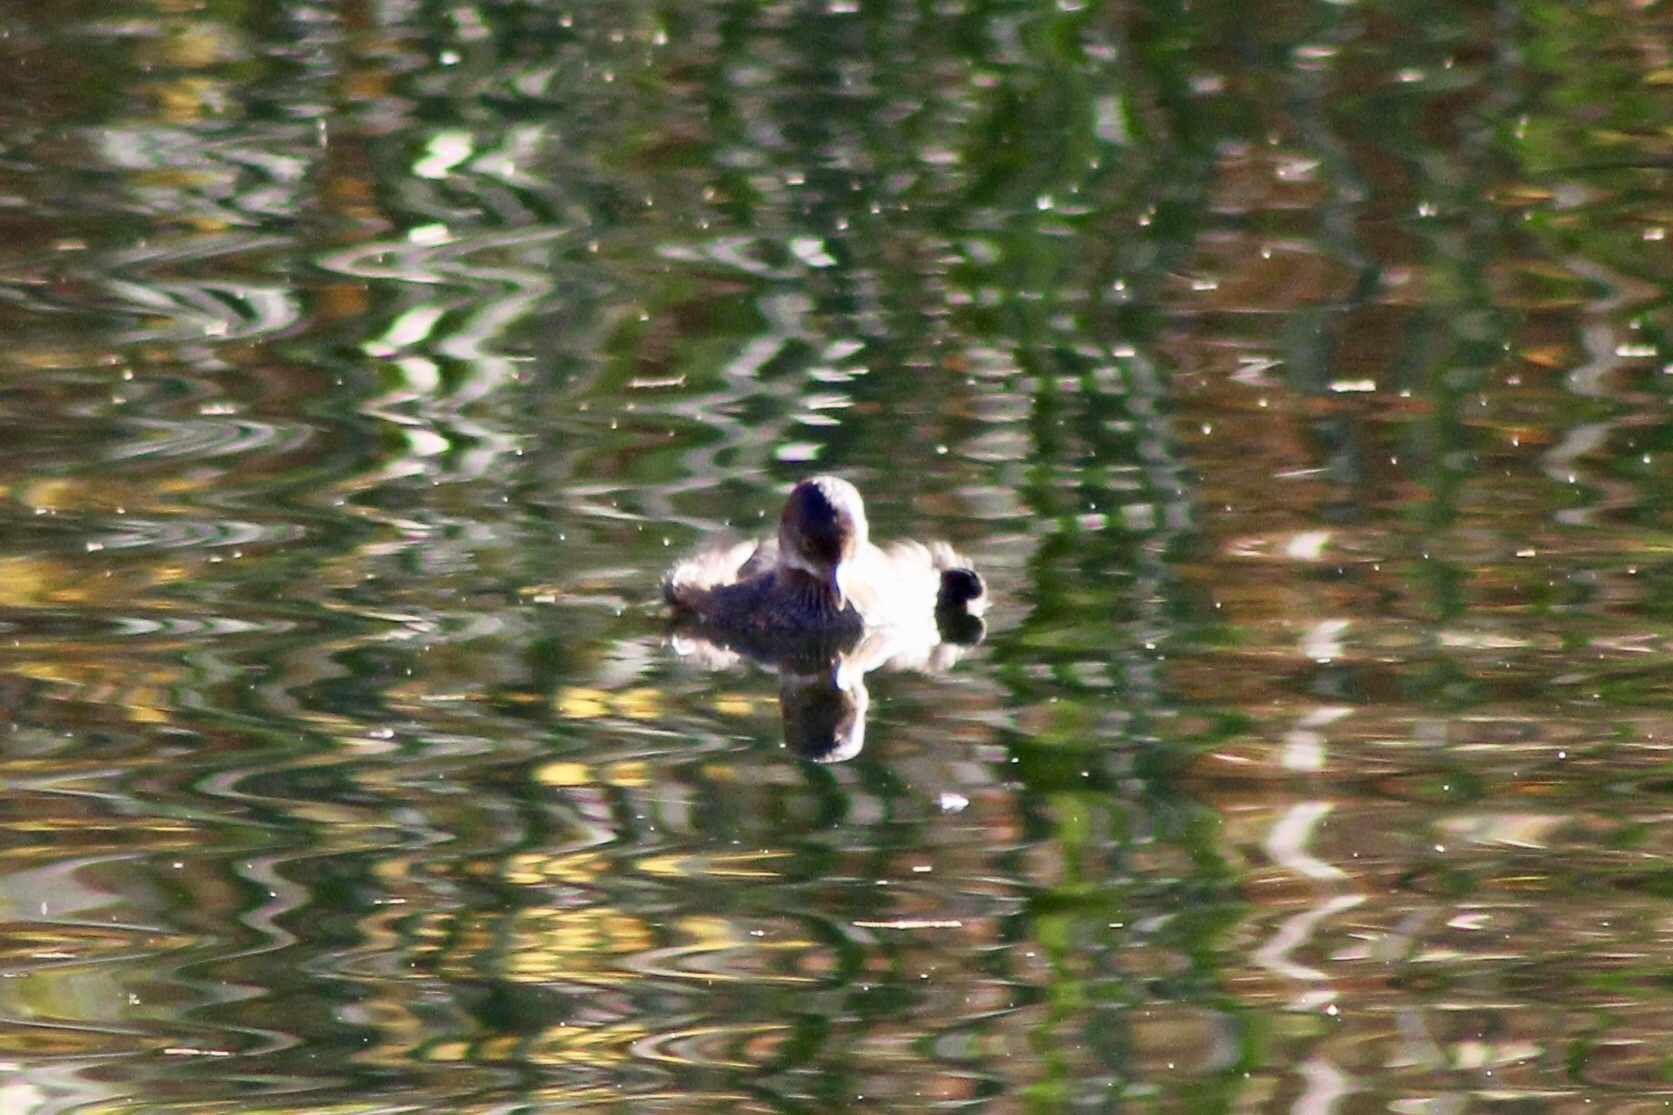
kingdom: Animalia
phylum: Chordata
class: Aves
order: Podicipediformes
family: Podicipedidae
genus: Podilymbus
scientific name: Podilymbus podiceps
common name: Pied-billed grebe
